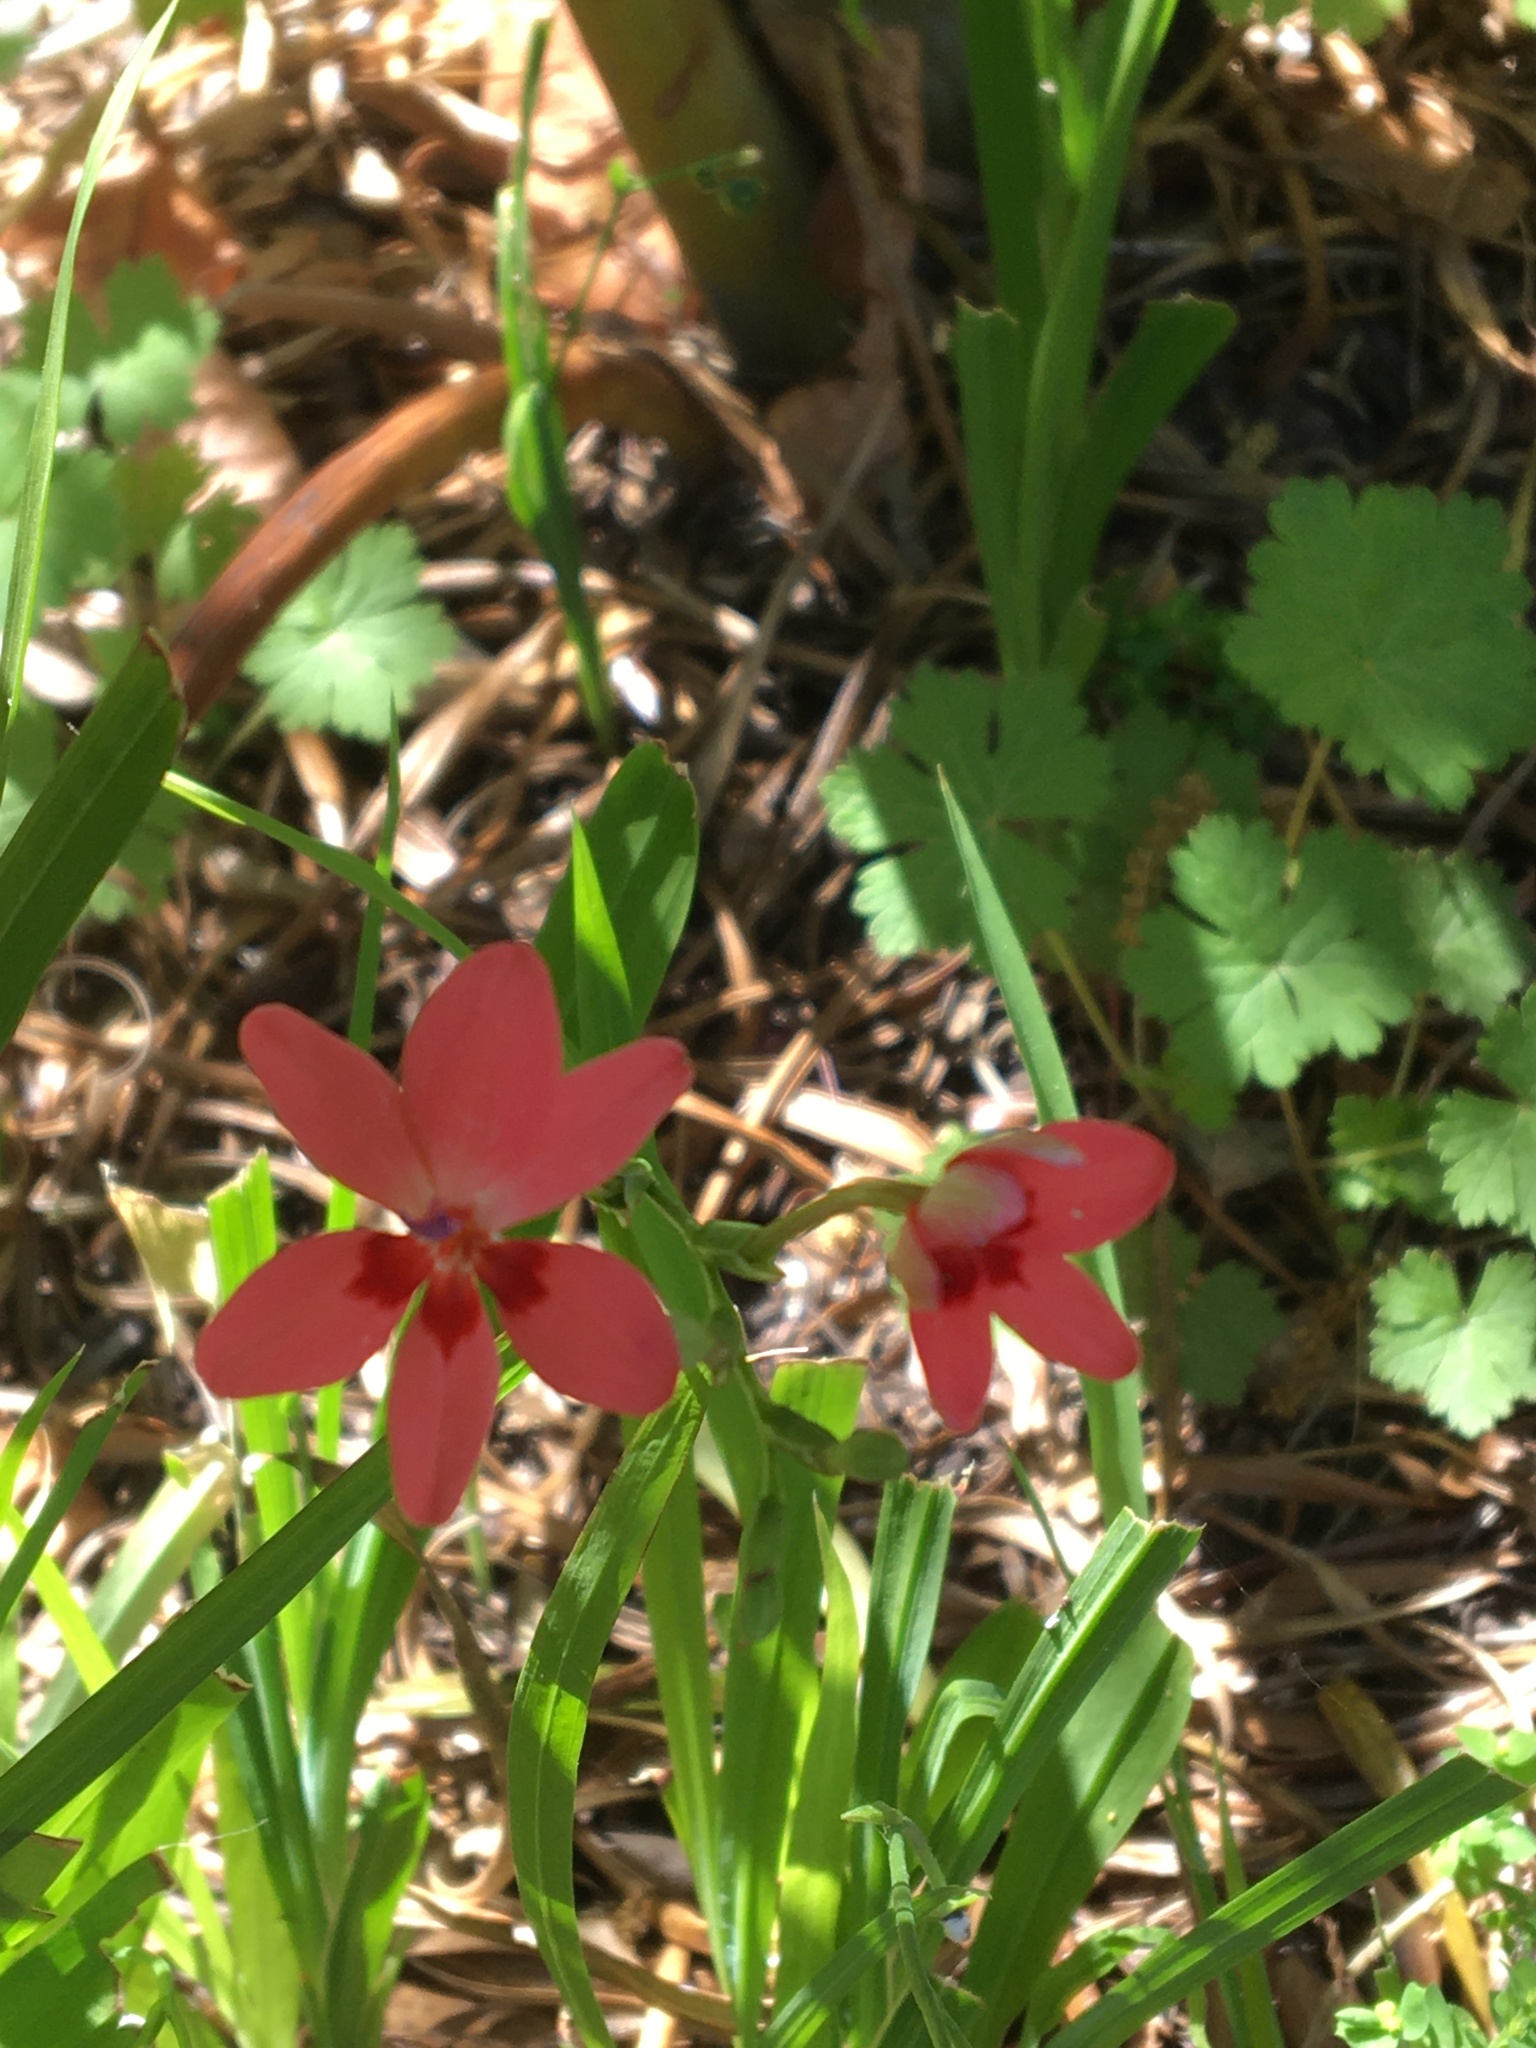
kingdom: Plantae
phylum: Tracheophyta
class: Liliopsida
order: Asparagales
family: Iridaceae
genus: Freesia
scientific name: Freesia laxa
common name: False freesia
